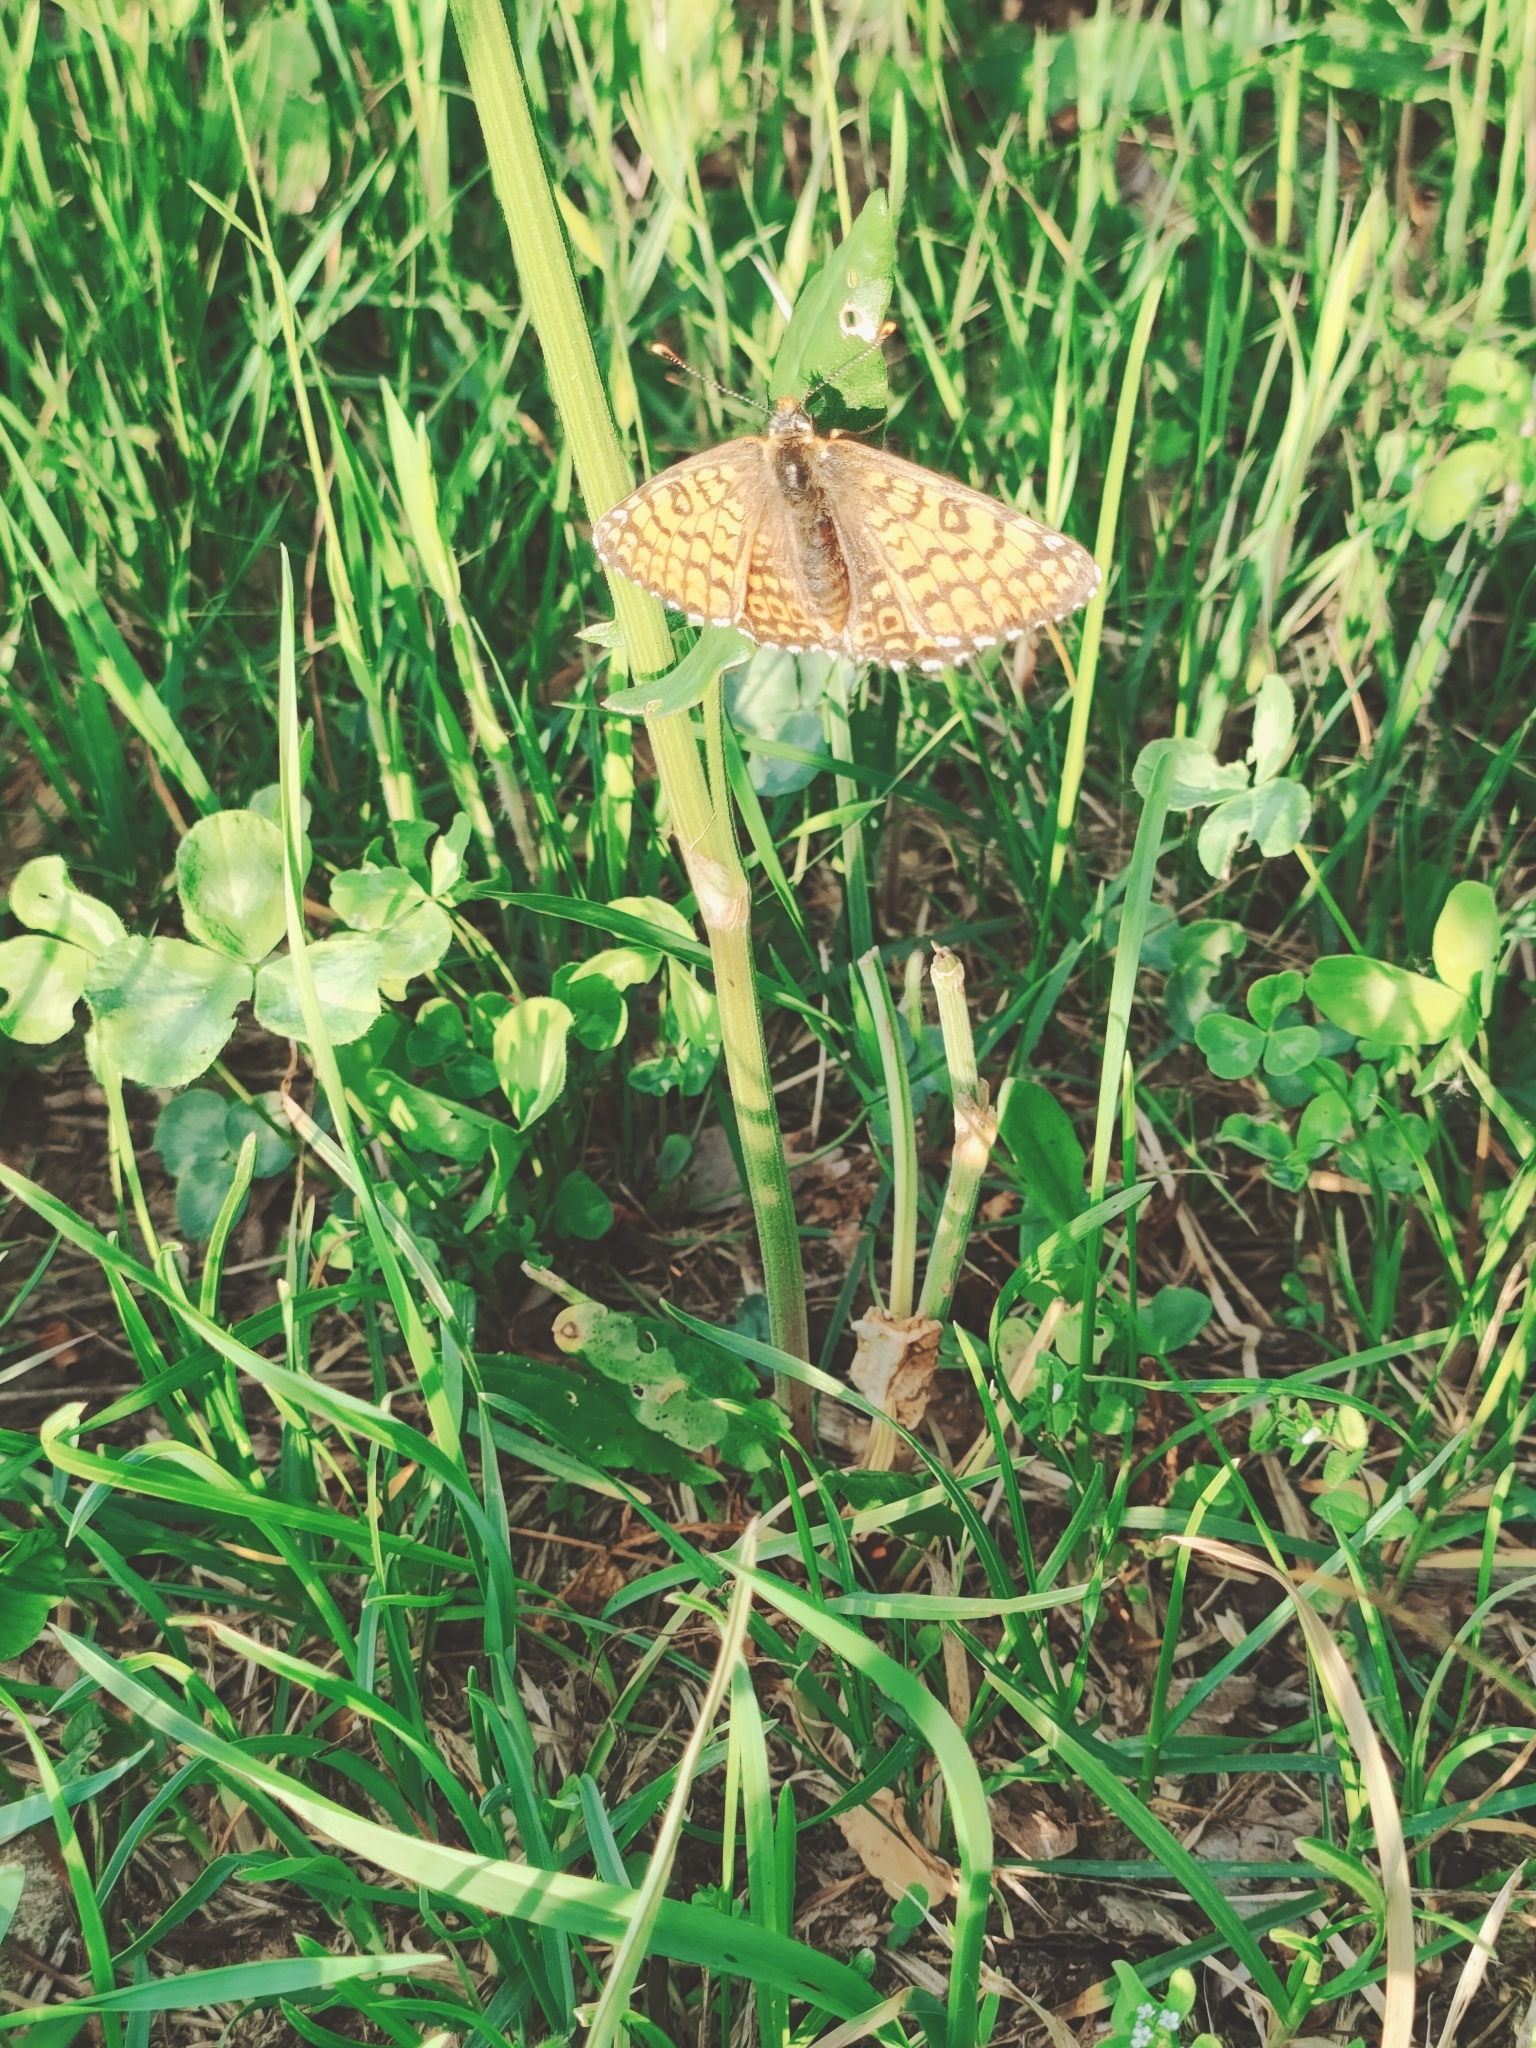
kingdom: Animalia
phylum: Arthropoda
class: Insecta
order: Lepidoptera
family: Nymphalidae
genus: Melitaea
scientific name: Melitaea cinxia
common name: Glanville fritillary
